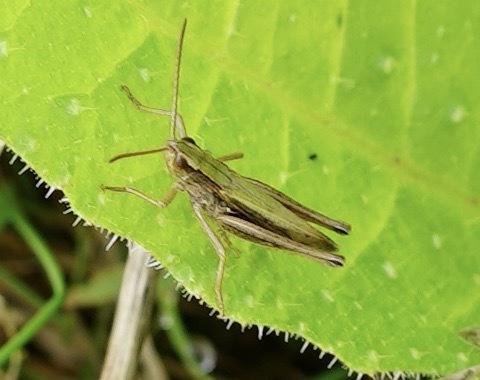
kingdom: Animalia
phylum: Arthropoda
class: Insecta
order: Orthoptera
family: Acrididae
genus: Chorthippus
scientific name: Chorthippus albomarginatus
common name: Lesser marsh grasshopper
